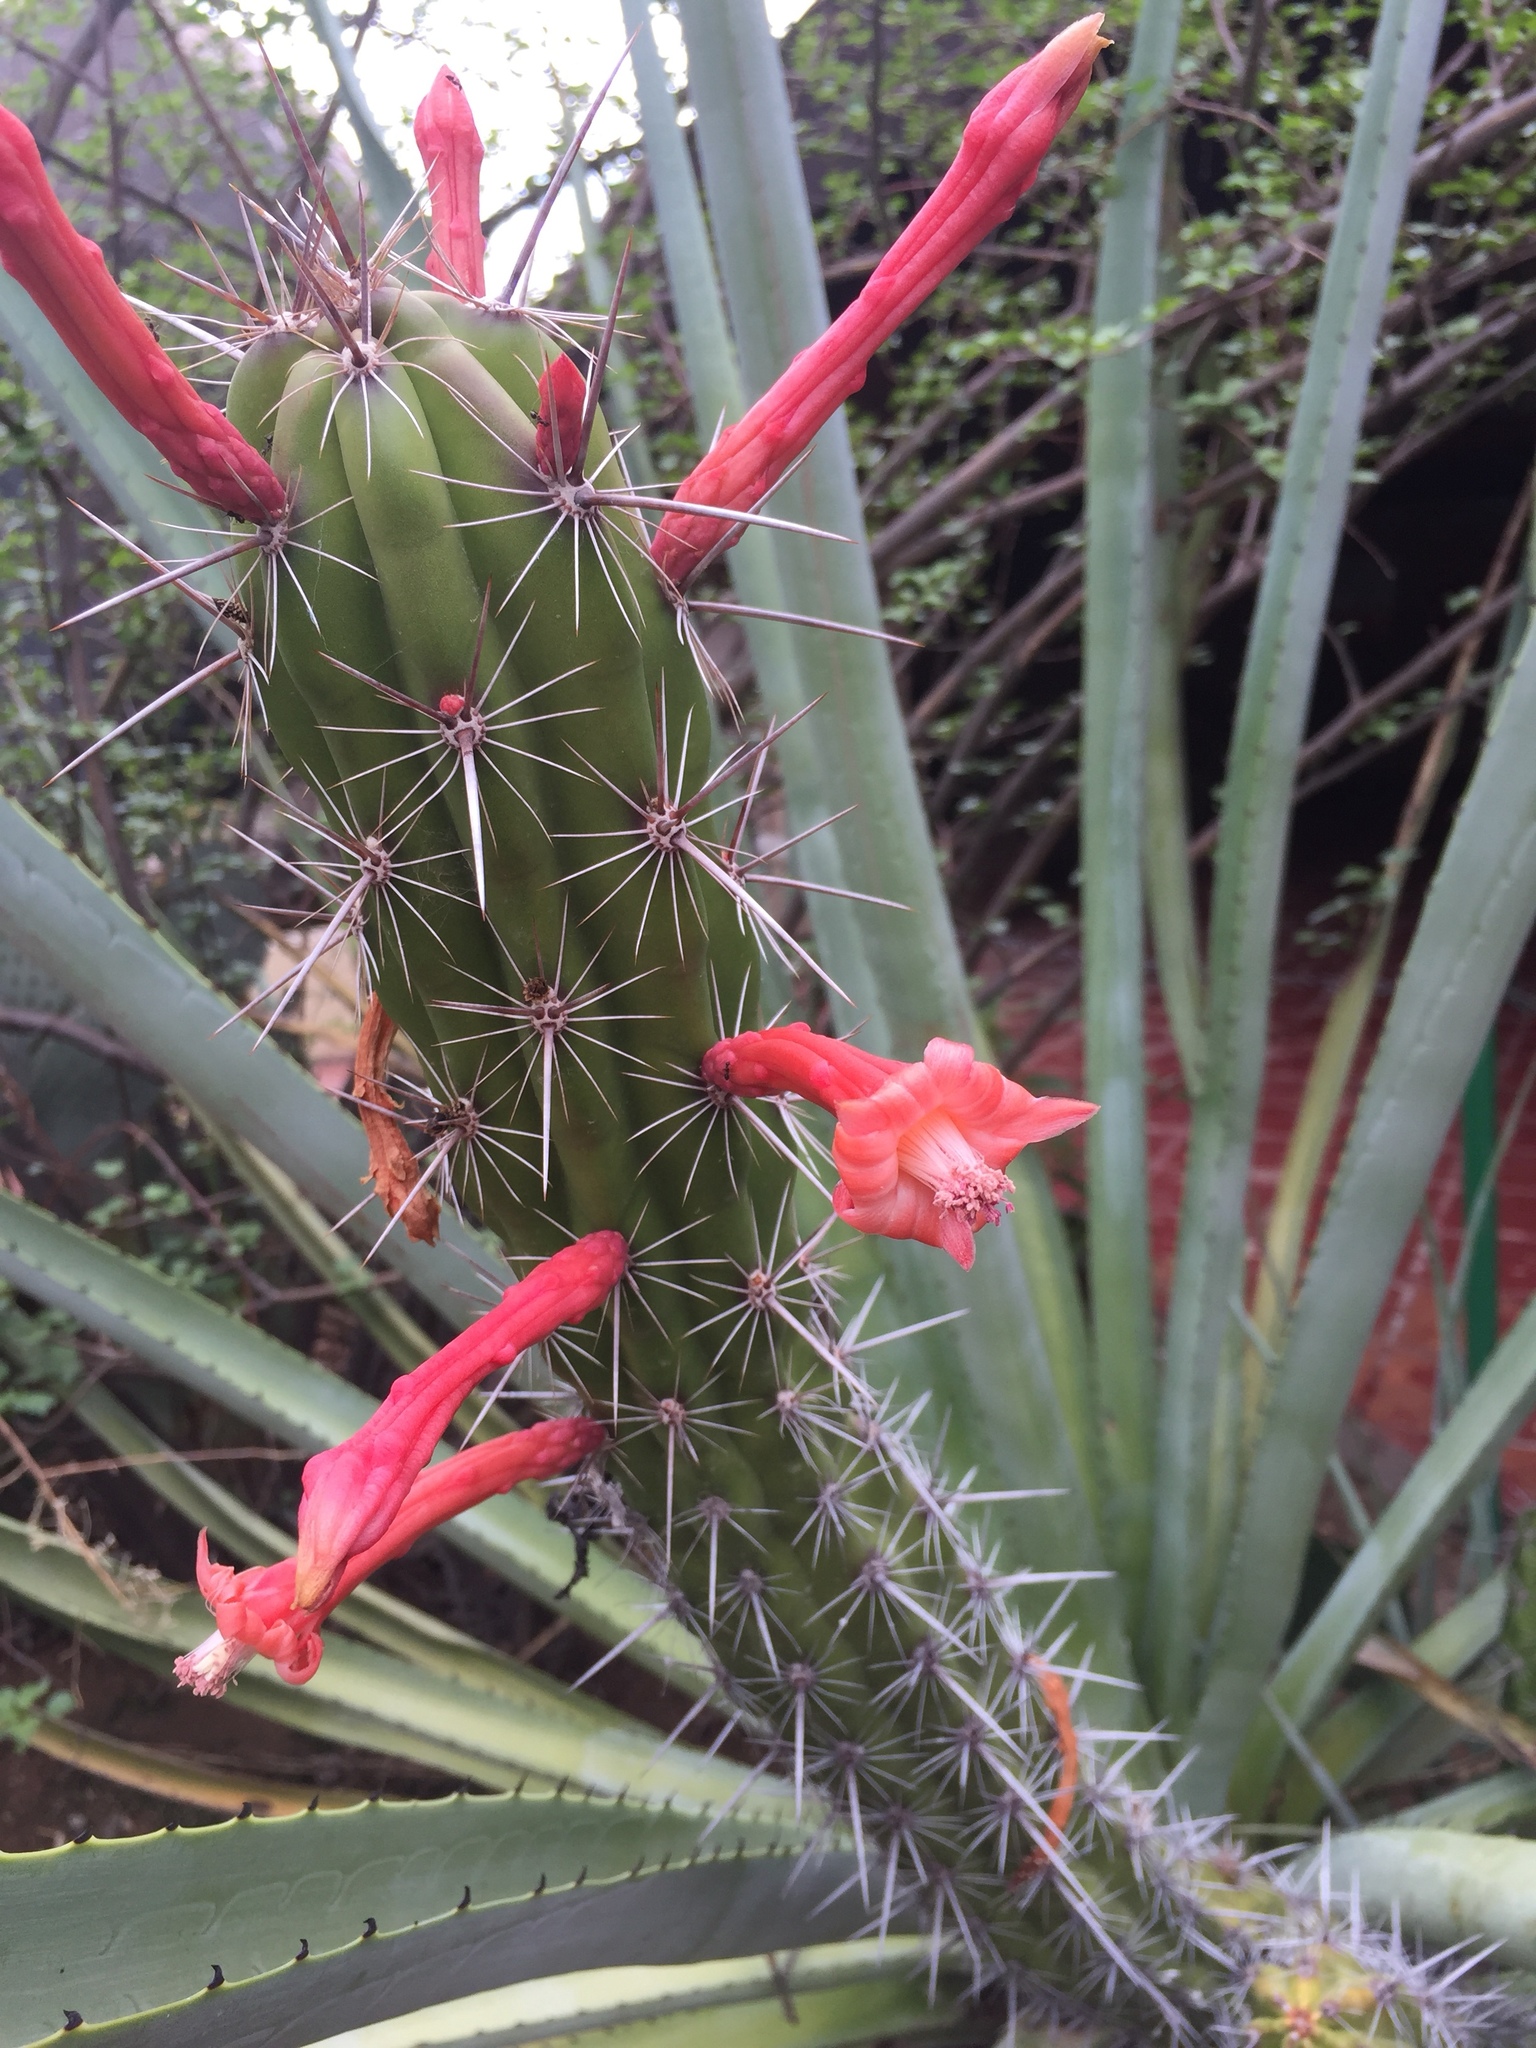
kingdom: Plantae
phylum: Tracheophyta
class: Magnoliopsida
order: Caryophyllales
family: Cactaceae
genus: Stenocereus
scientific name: Stenocereus alamosensis
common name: Octopus cactus
